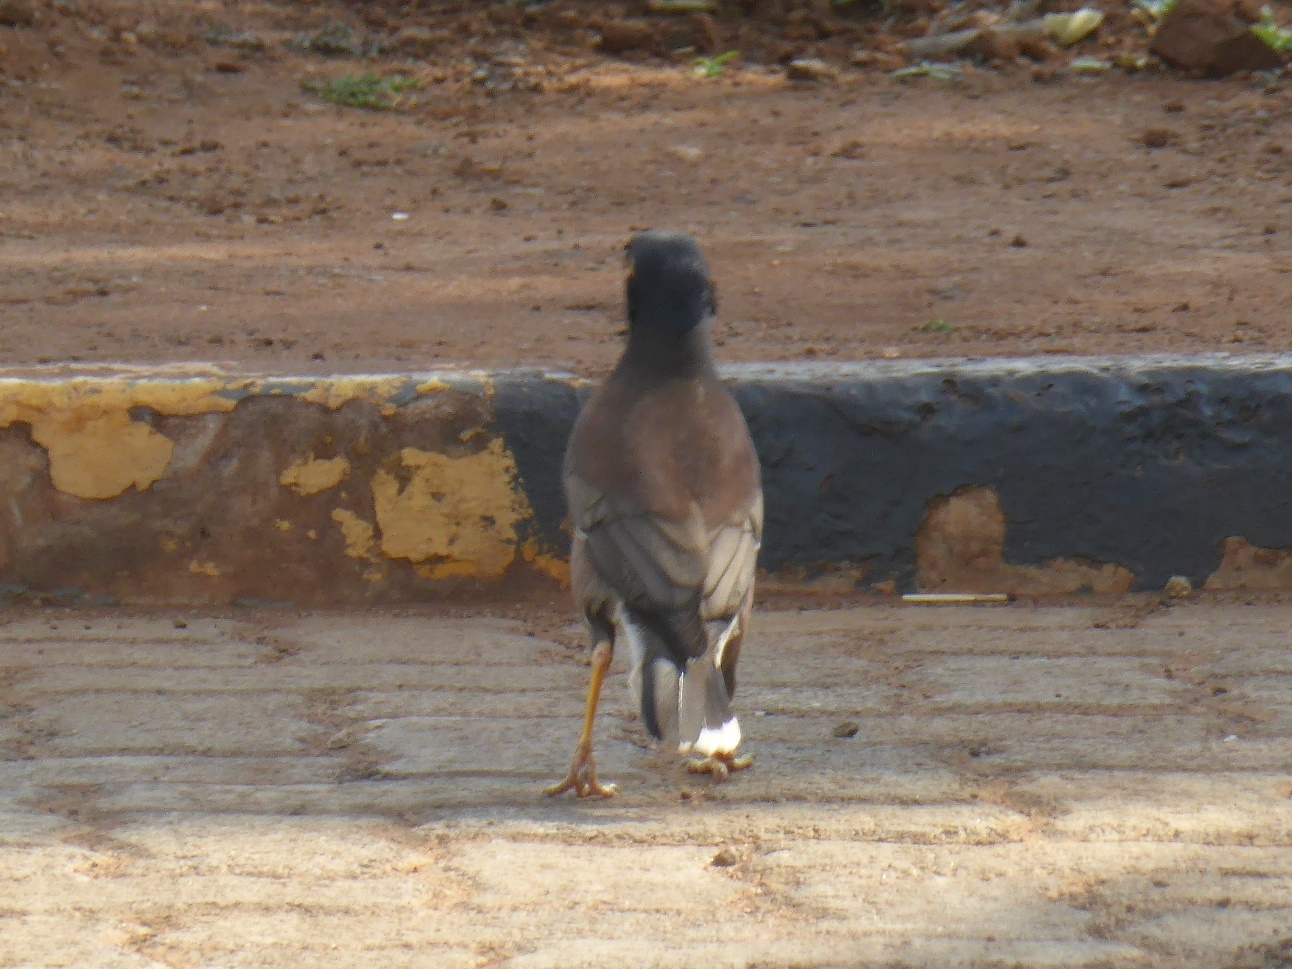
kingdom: Animalia
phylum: Chordata
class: Aves
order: Passeriformes
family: Sturnidae
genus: Acridotheres
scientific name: Acridotheres tristis
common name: Common myna
